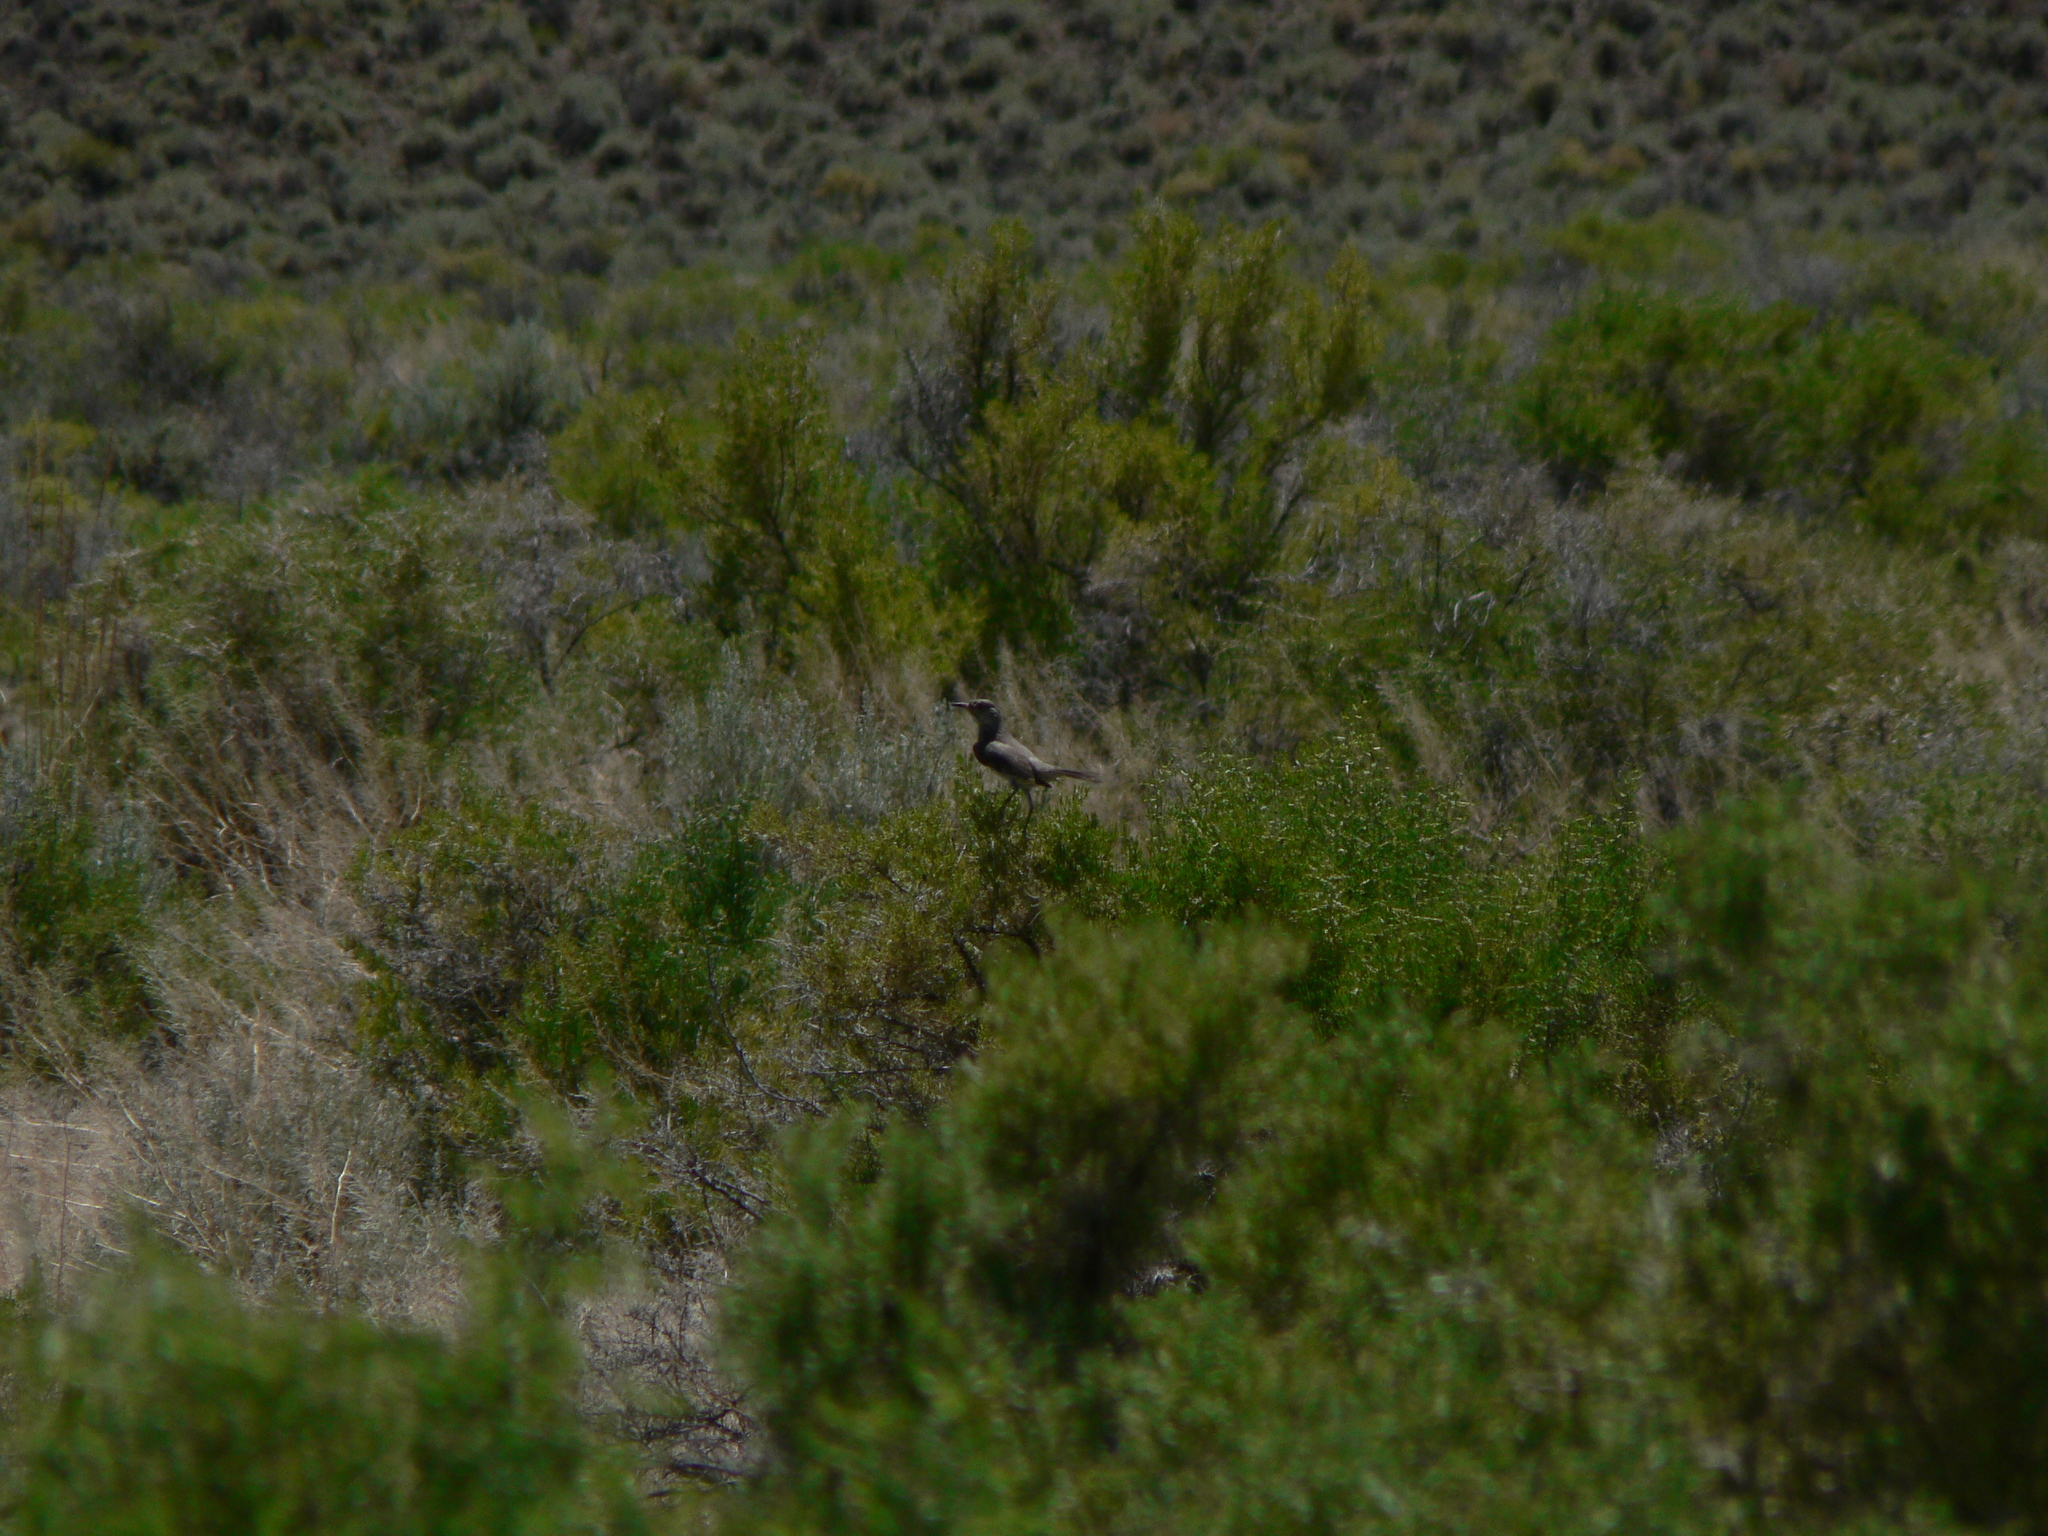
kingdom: Animalia
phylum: Chordata
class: Aves
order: Passeriformes
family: Mimidae
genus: Oreoscoptes
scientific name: Oreoscoptes montanus
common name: Sage thrasher
